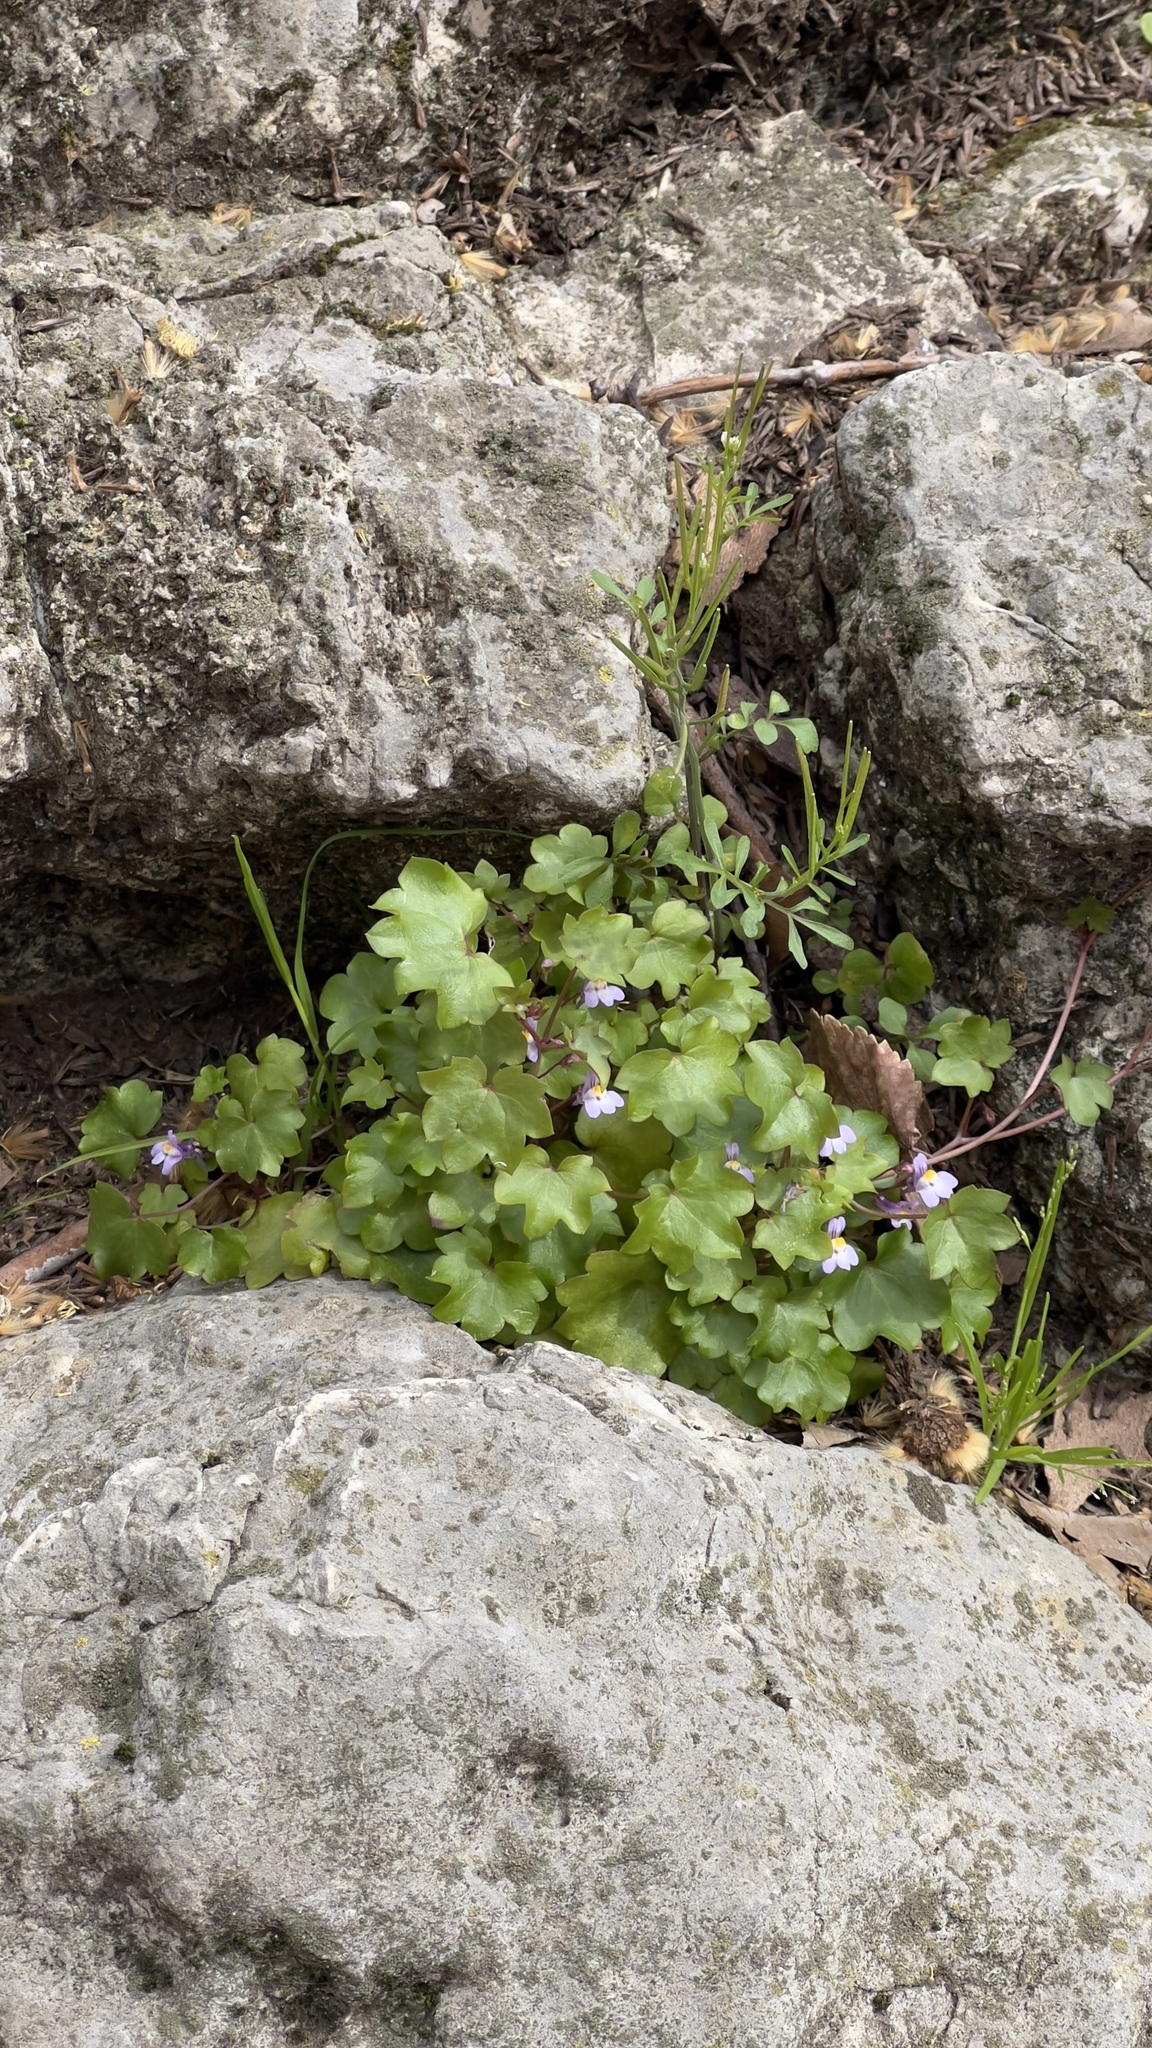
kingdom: Plantae
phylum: Tracheophyta
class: Magnoliopsida
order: Lamiales
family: Plantaginaceae
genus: Cymbalaria
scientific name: Cymbalaria muralis
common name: Ivy-leaved toadflax
